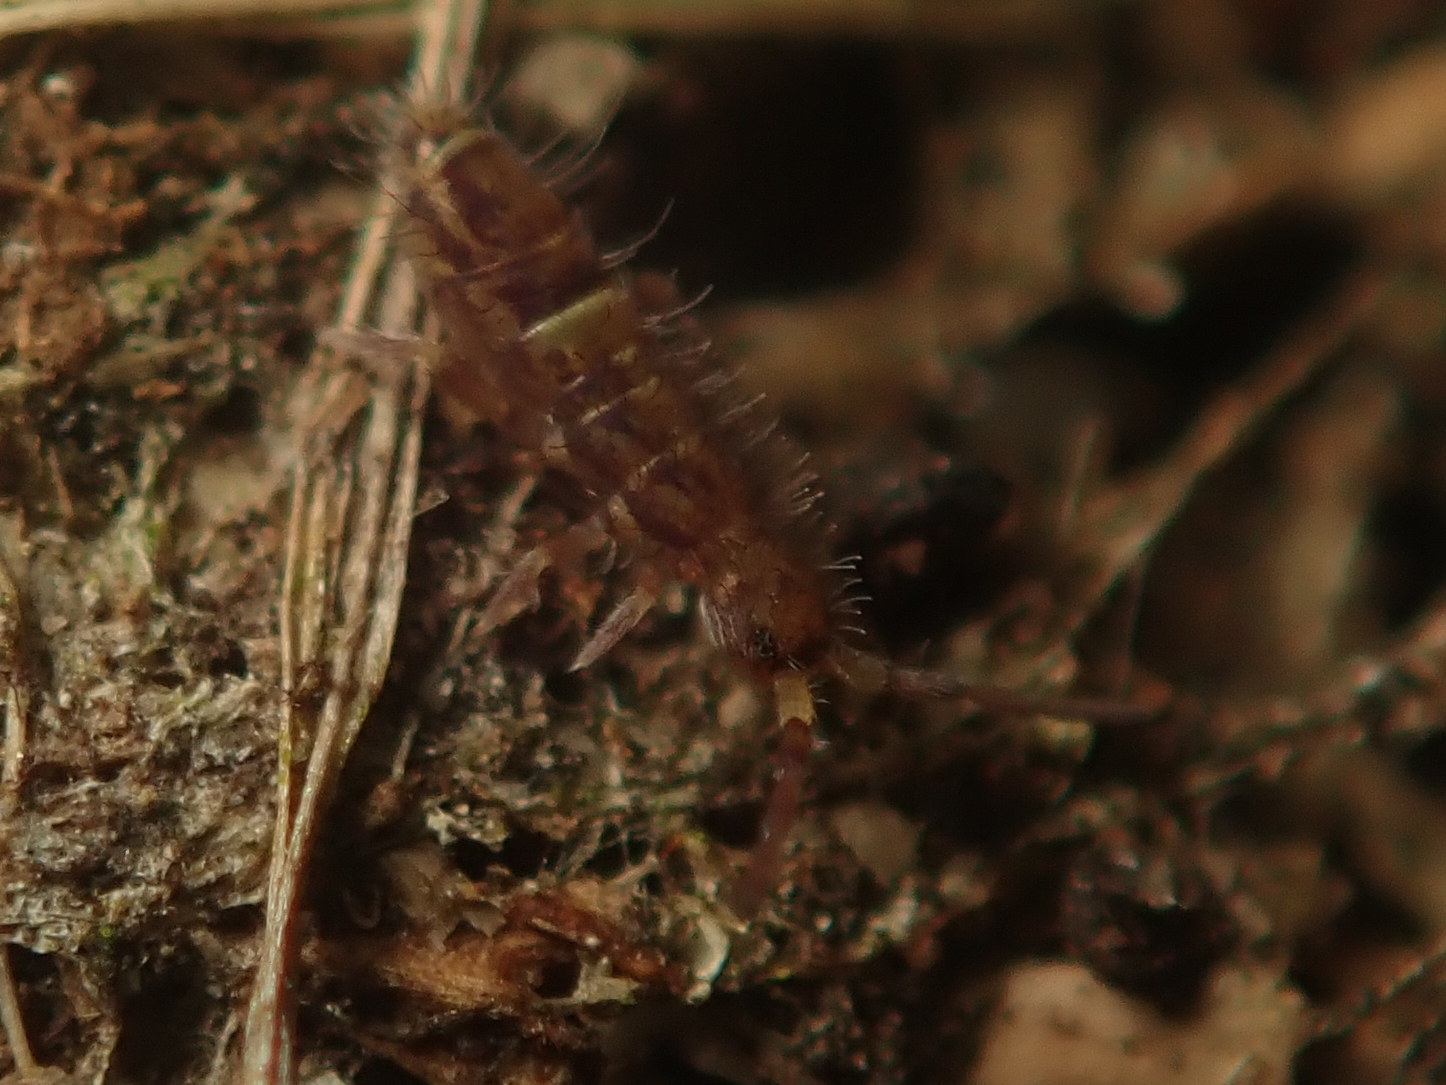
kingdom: Animalia
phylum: Arthropoda
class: Collembola
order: Entomobryomorpha
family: Orchesellidae
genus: Orchesella
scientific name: Orchesella cincta
